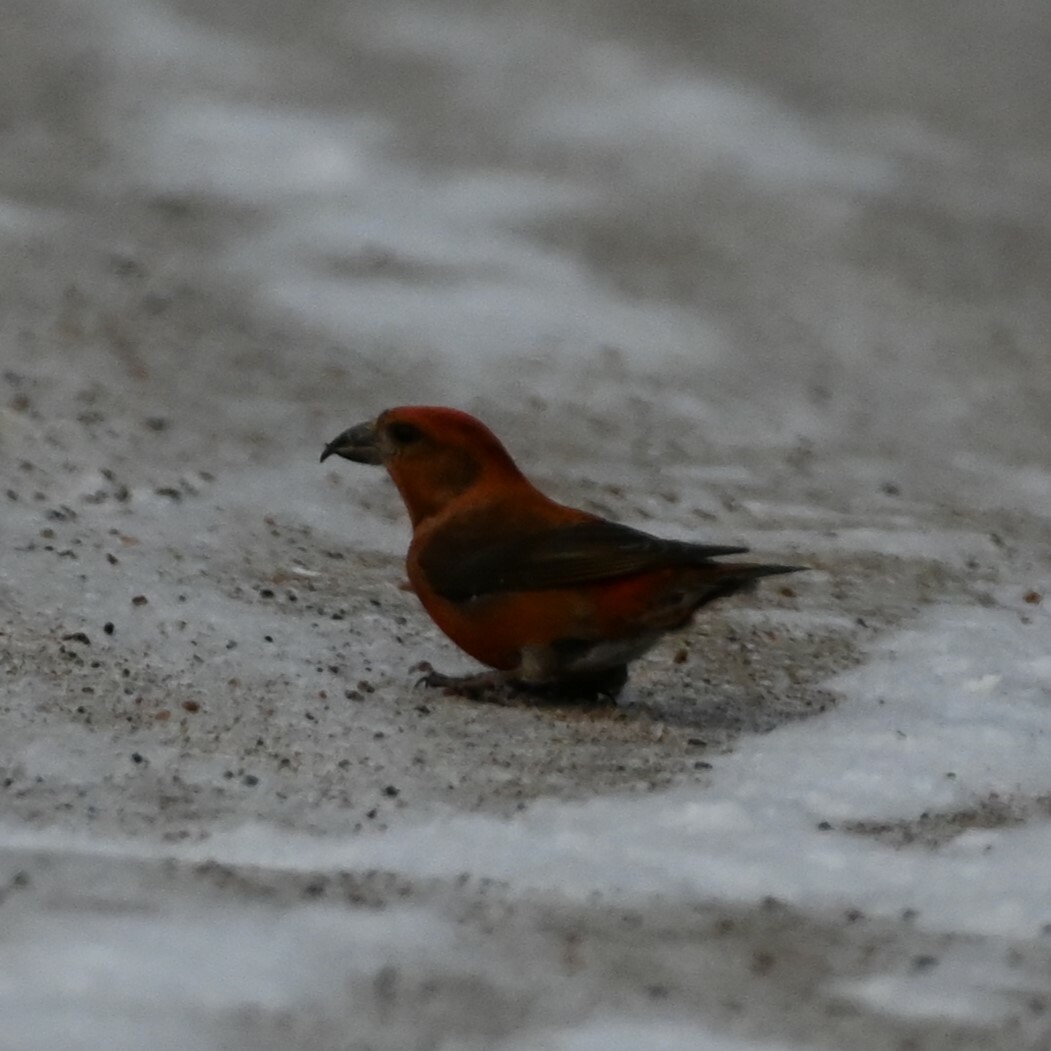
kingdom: Animalia
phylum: Chordata
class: Aves
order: Passeriformes
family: Fringillidae
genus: Loxia
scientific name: Loxia curvirostra
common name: Red crossbill
